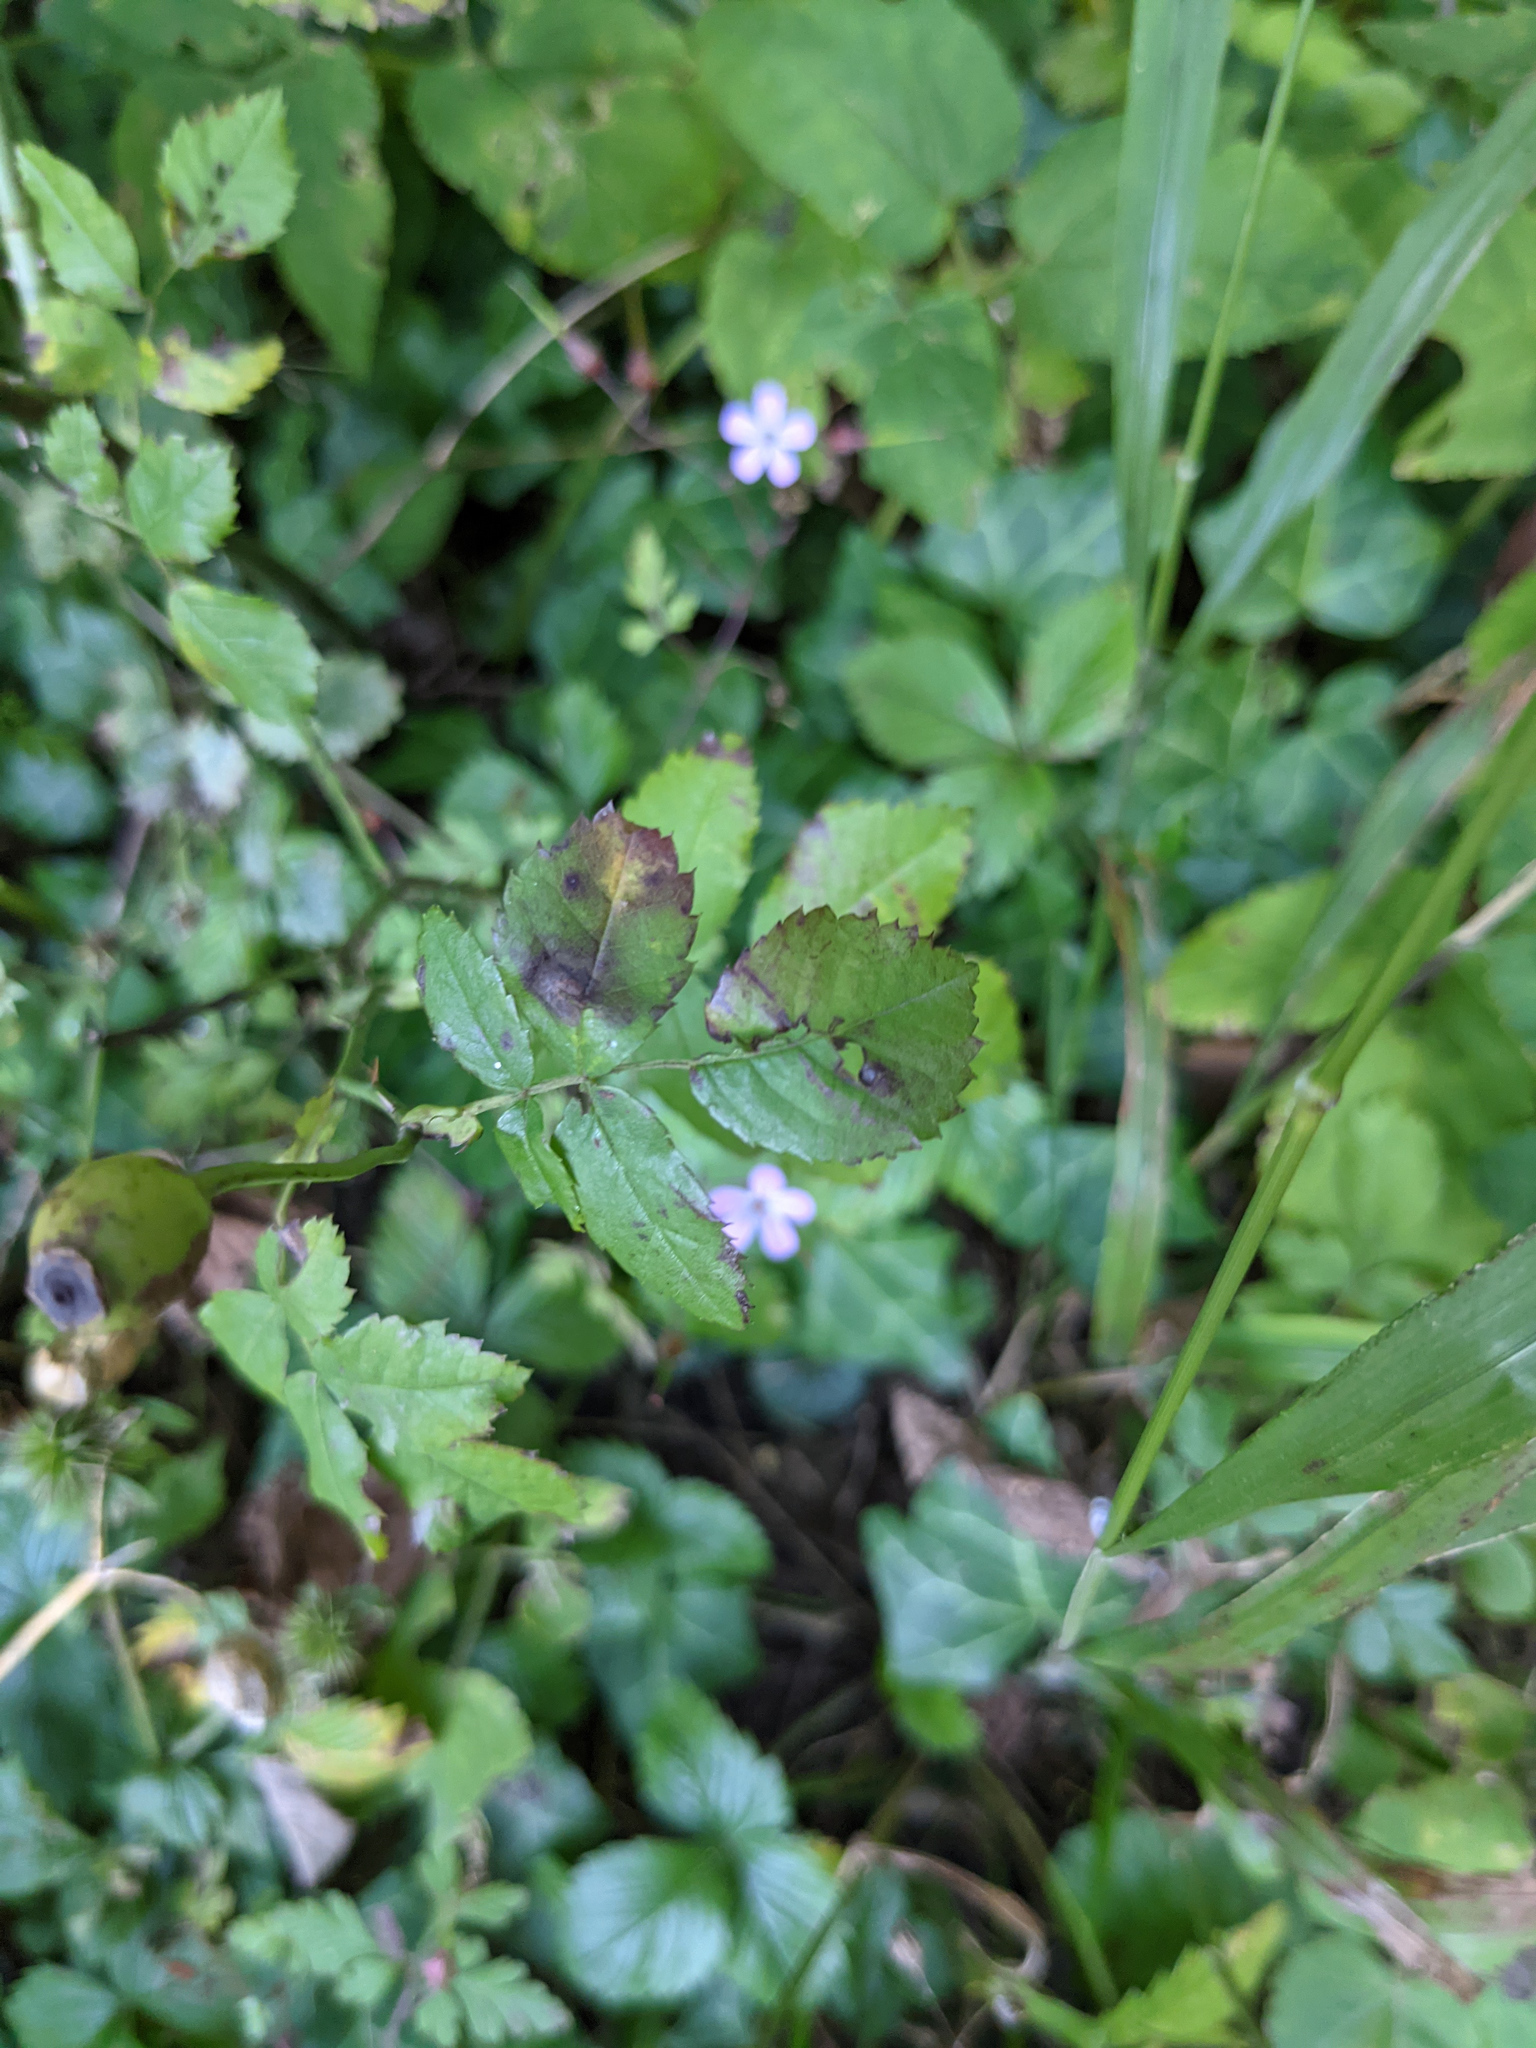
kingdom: Plantae
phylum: Tracheophyta
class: Magnoliopsida
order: Geraniales
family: Geraniaceae
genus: Geranium
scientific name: Geranium robertianum
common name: Herb-robert
